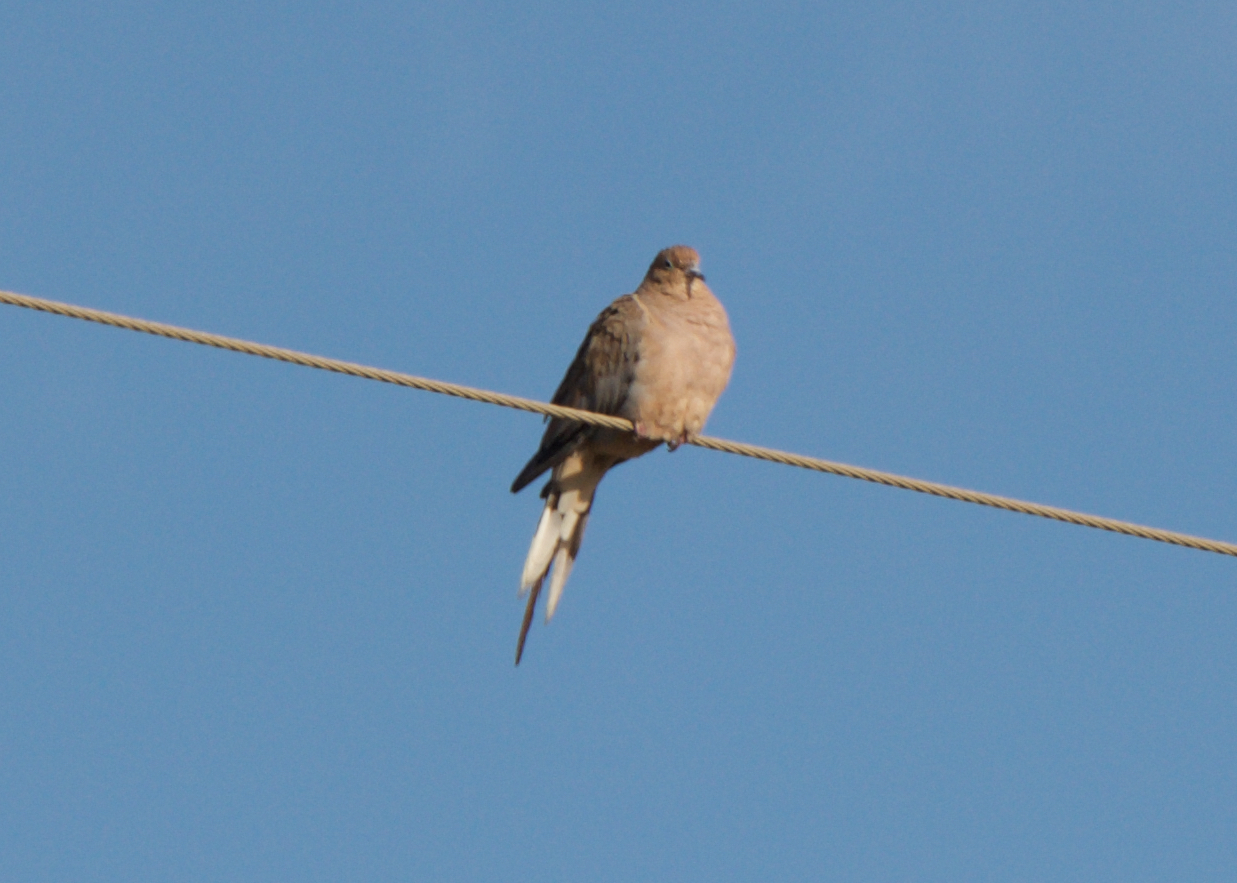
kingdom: Animalia
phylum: Chordata
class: Aves
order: Columbiformes
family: Columbidae
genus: Zenaida
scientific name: Zenaida macroura
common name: Mourning dove
